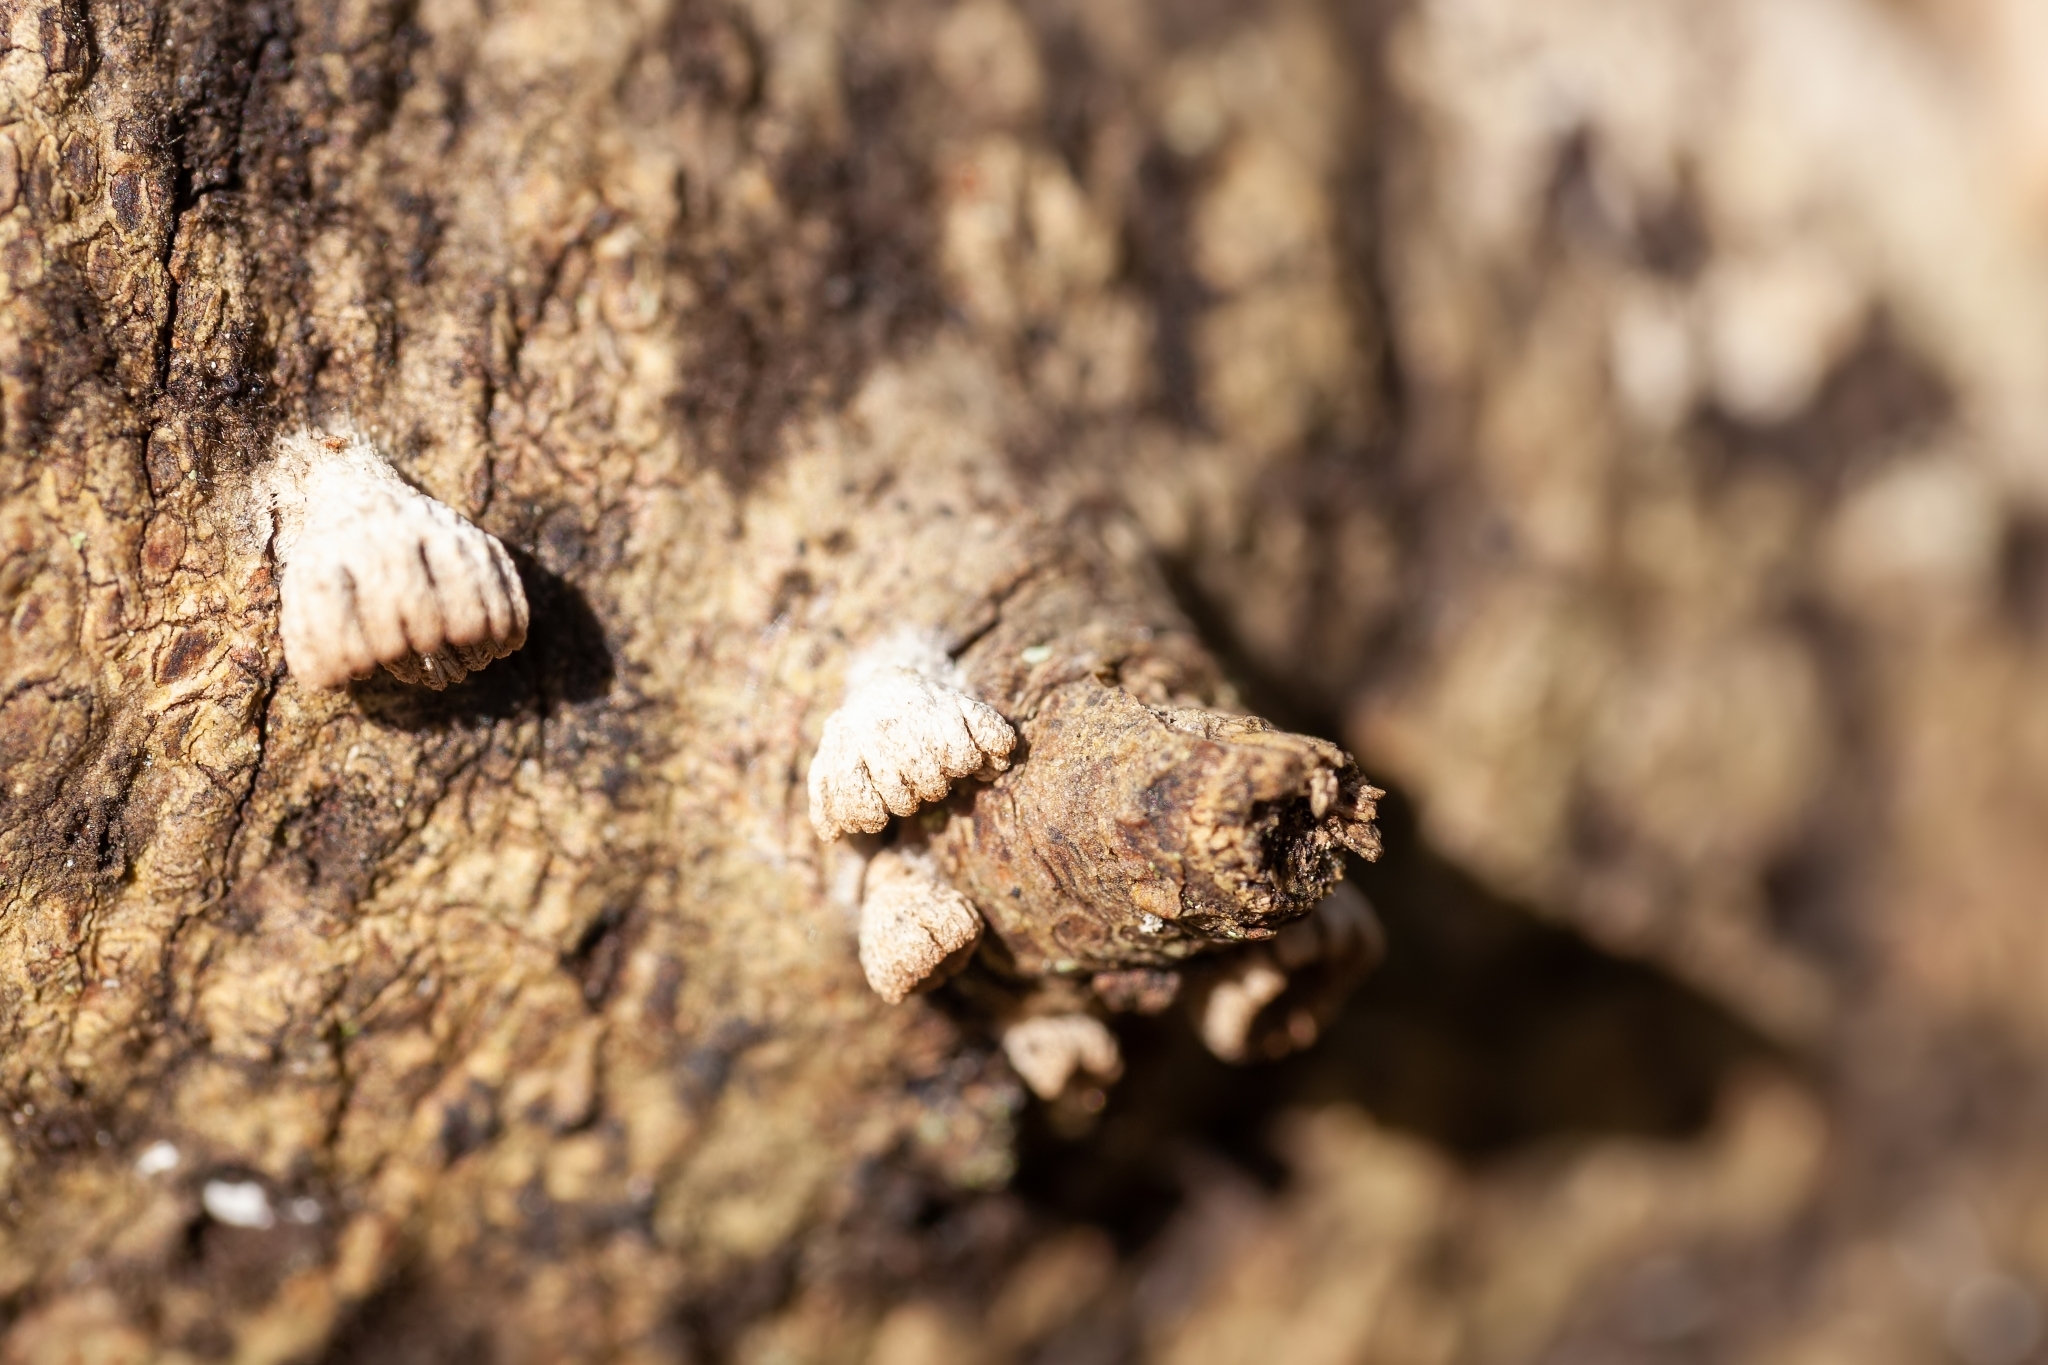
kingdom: Fungi
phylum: Basidiomycota
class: Agaricomycetes
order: Agaricales
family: Schizophyllaceae
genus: Schizophyllum
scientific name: Schizophyllum commune
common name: Common porecrust
